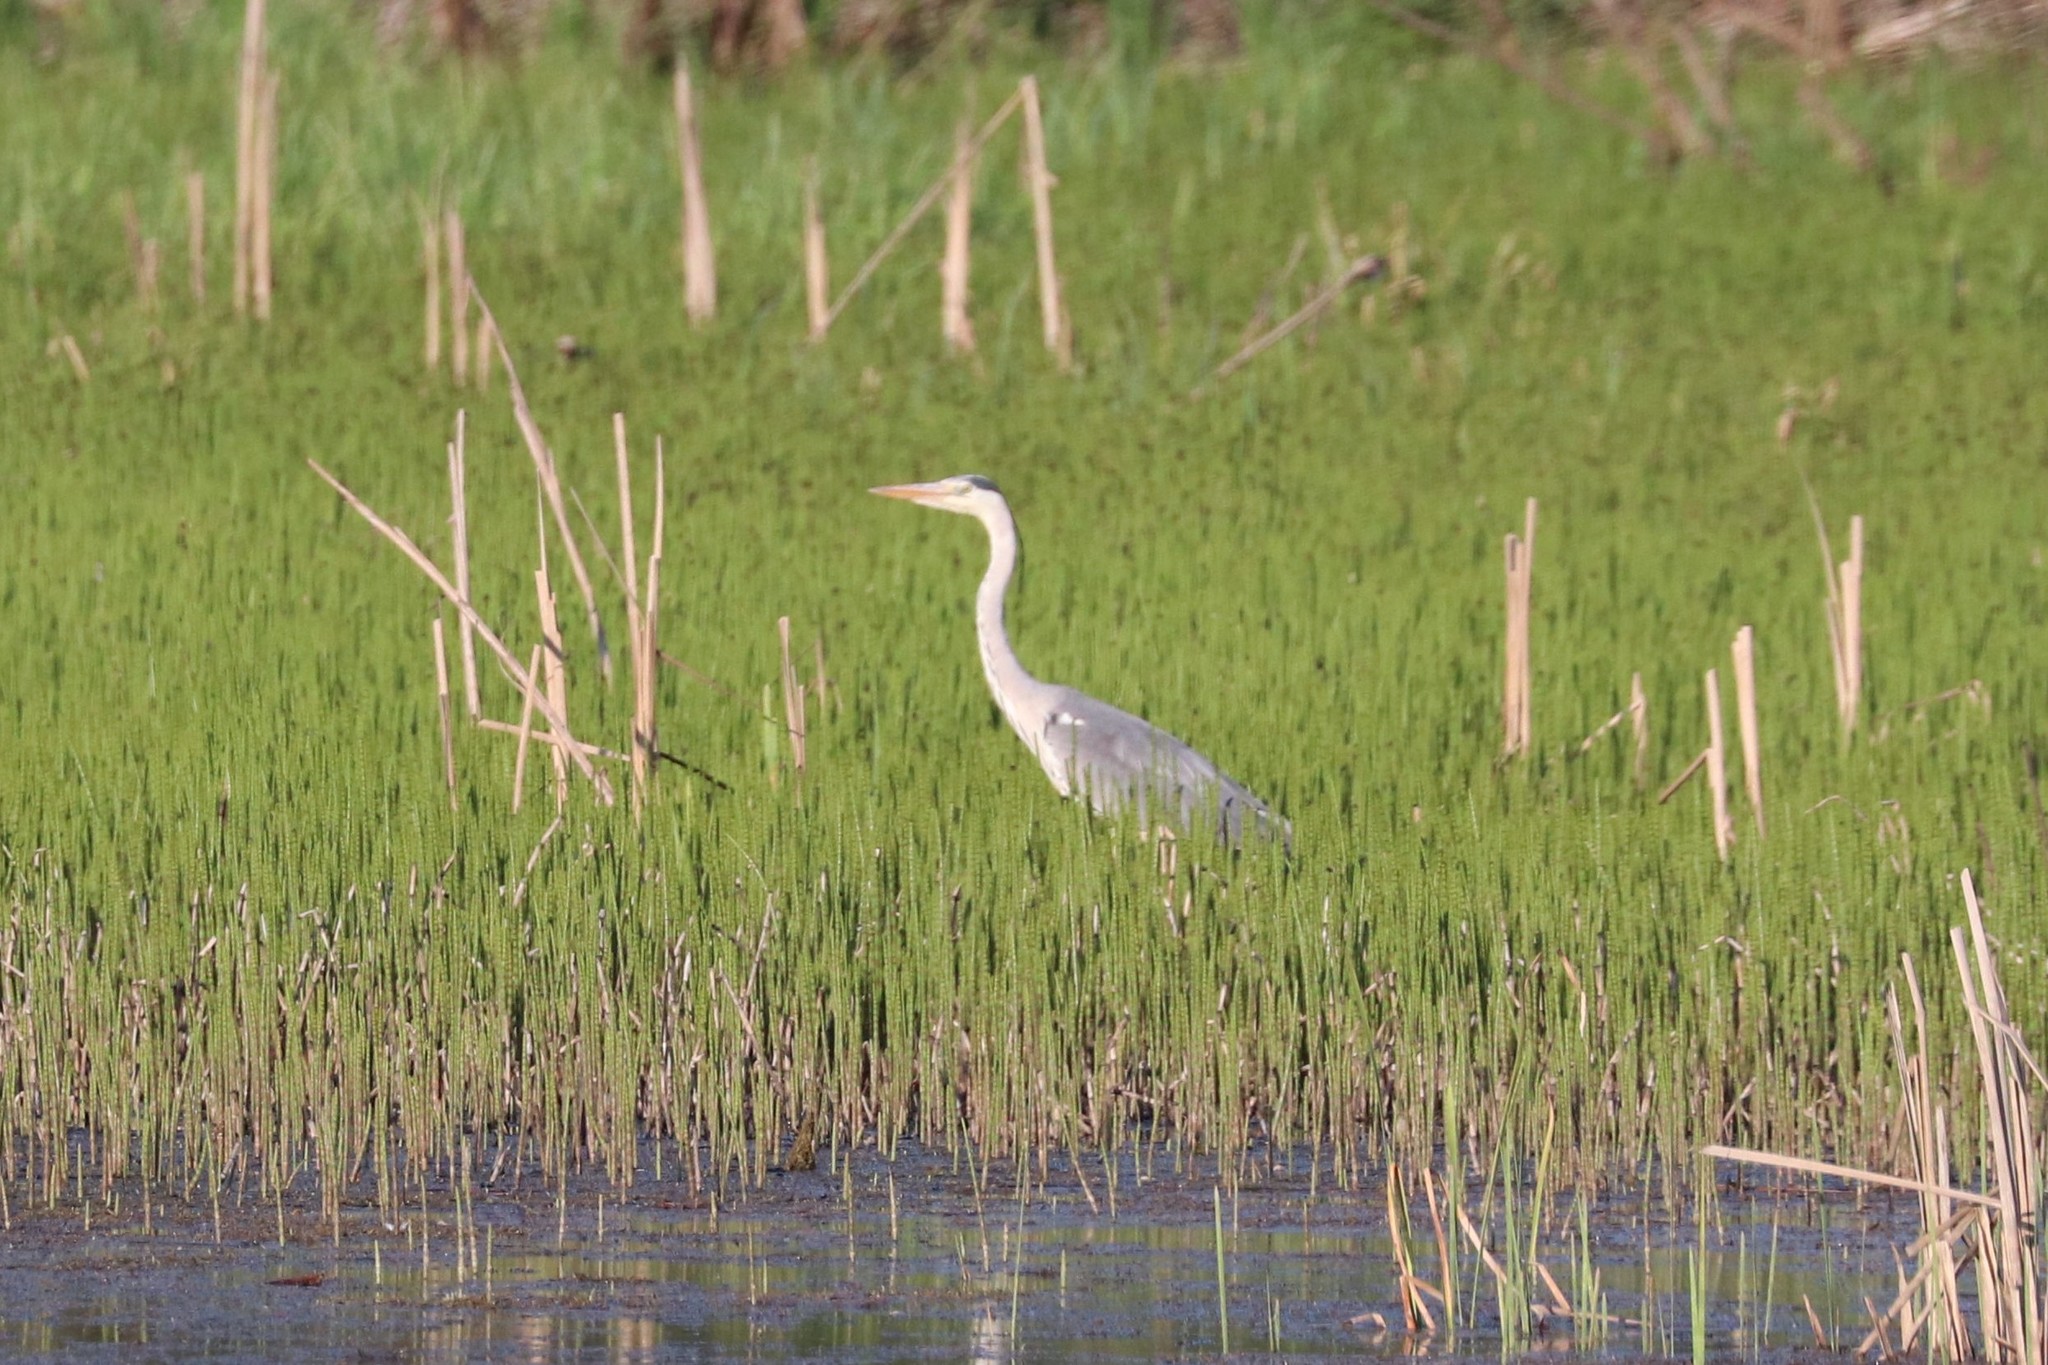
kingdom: Animalia
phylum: Chordata
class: Aves
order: Pelecaniformes
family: Ardeidae
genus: Ardea
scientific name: Ardea cinerea
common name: Grey heron
